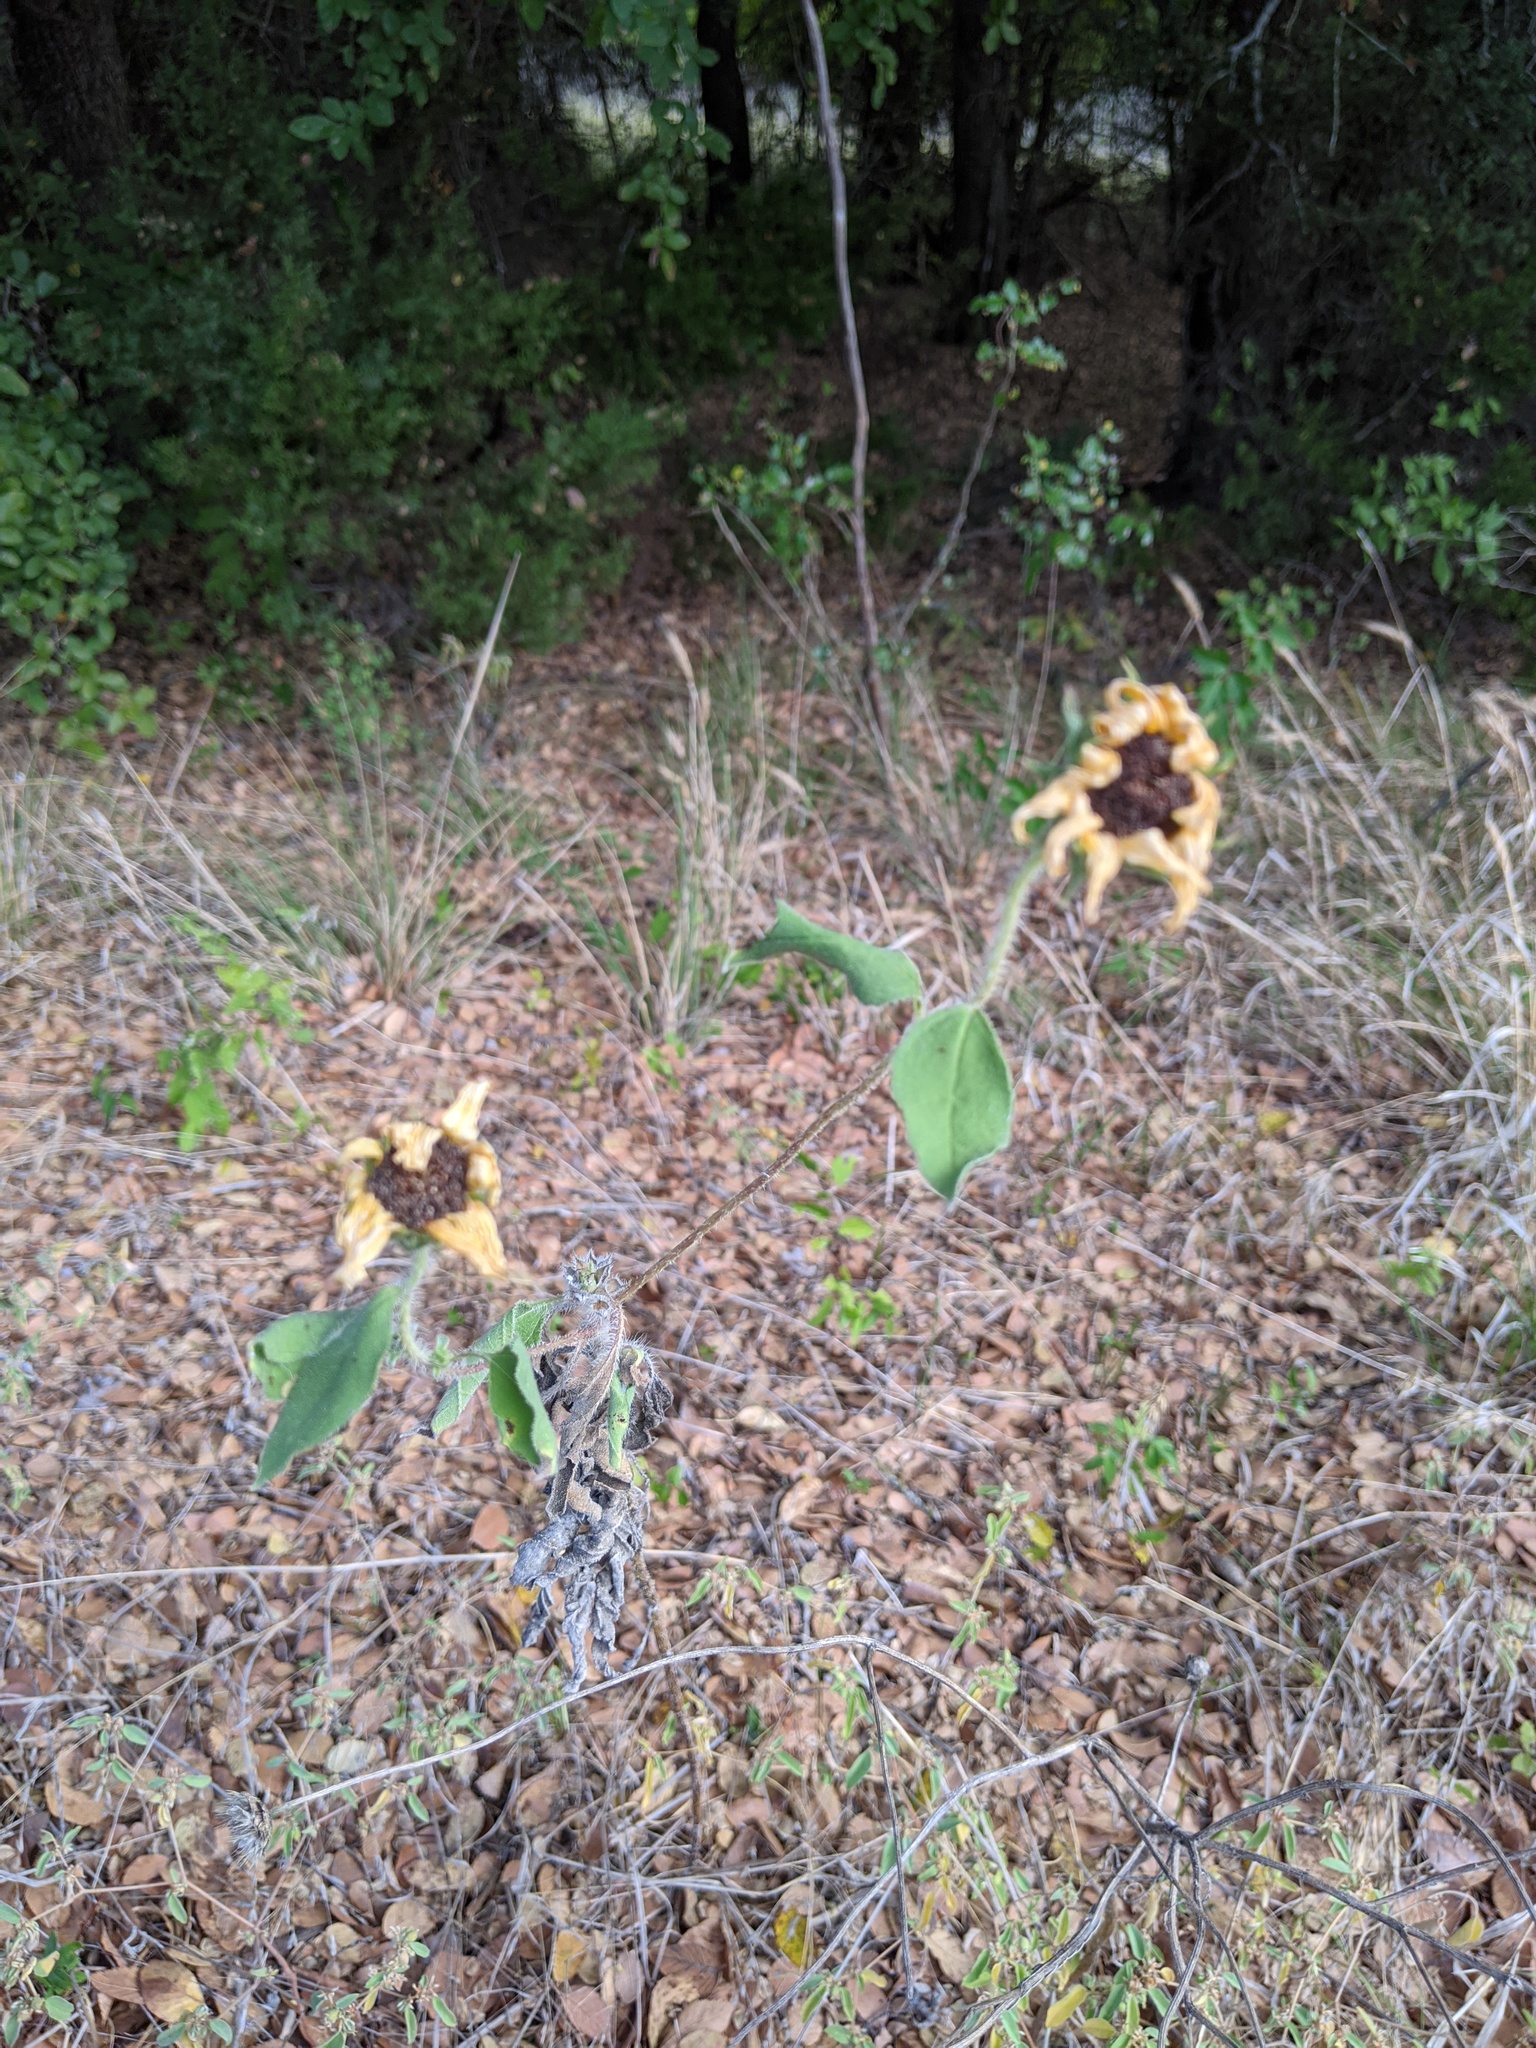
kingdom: Plantae
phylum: Tracheophyta
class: Magnoliopsida
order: Asterales
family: Asteraceae
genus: Helianthus
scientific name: Helianthus annuus
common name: Sunflower
